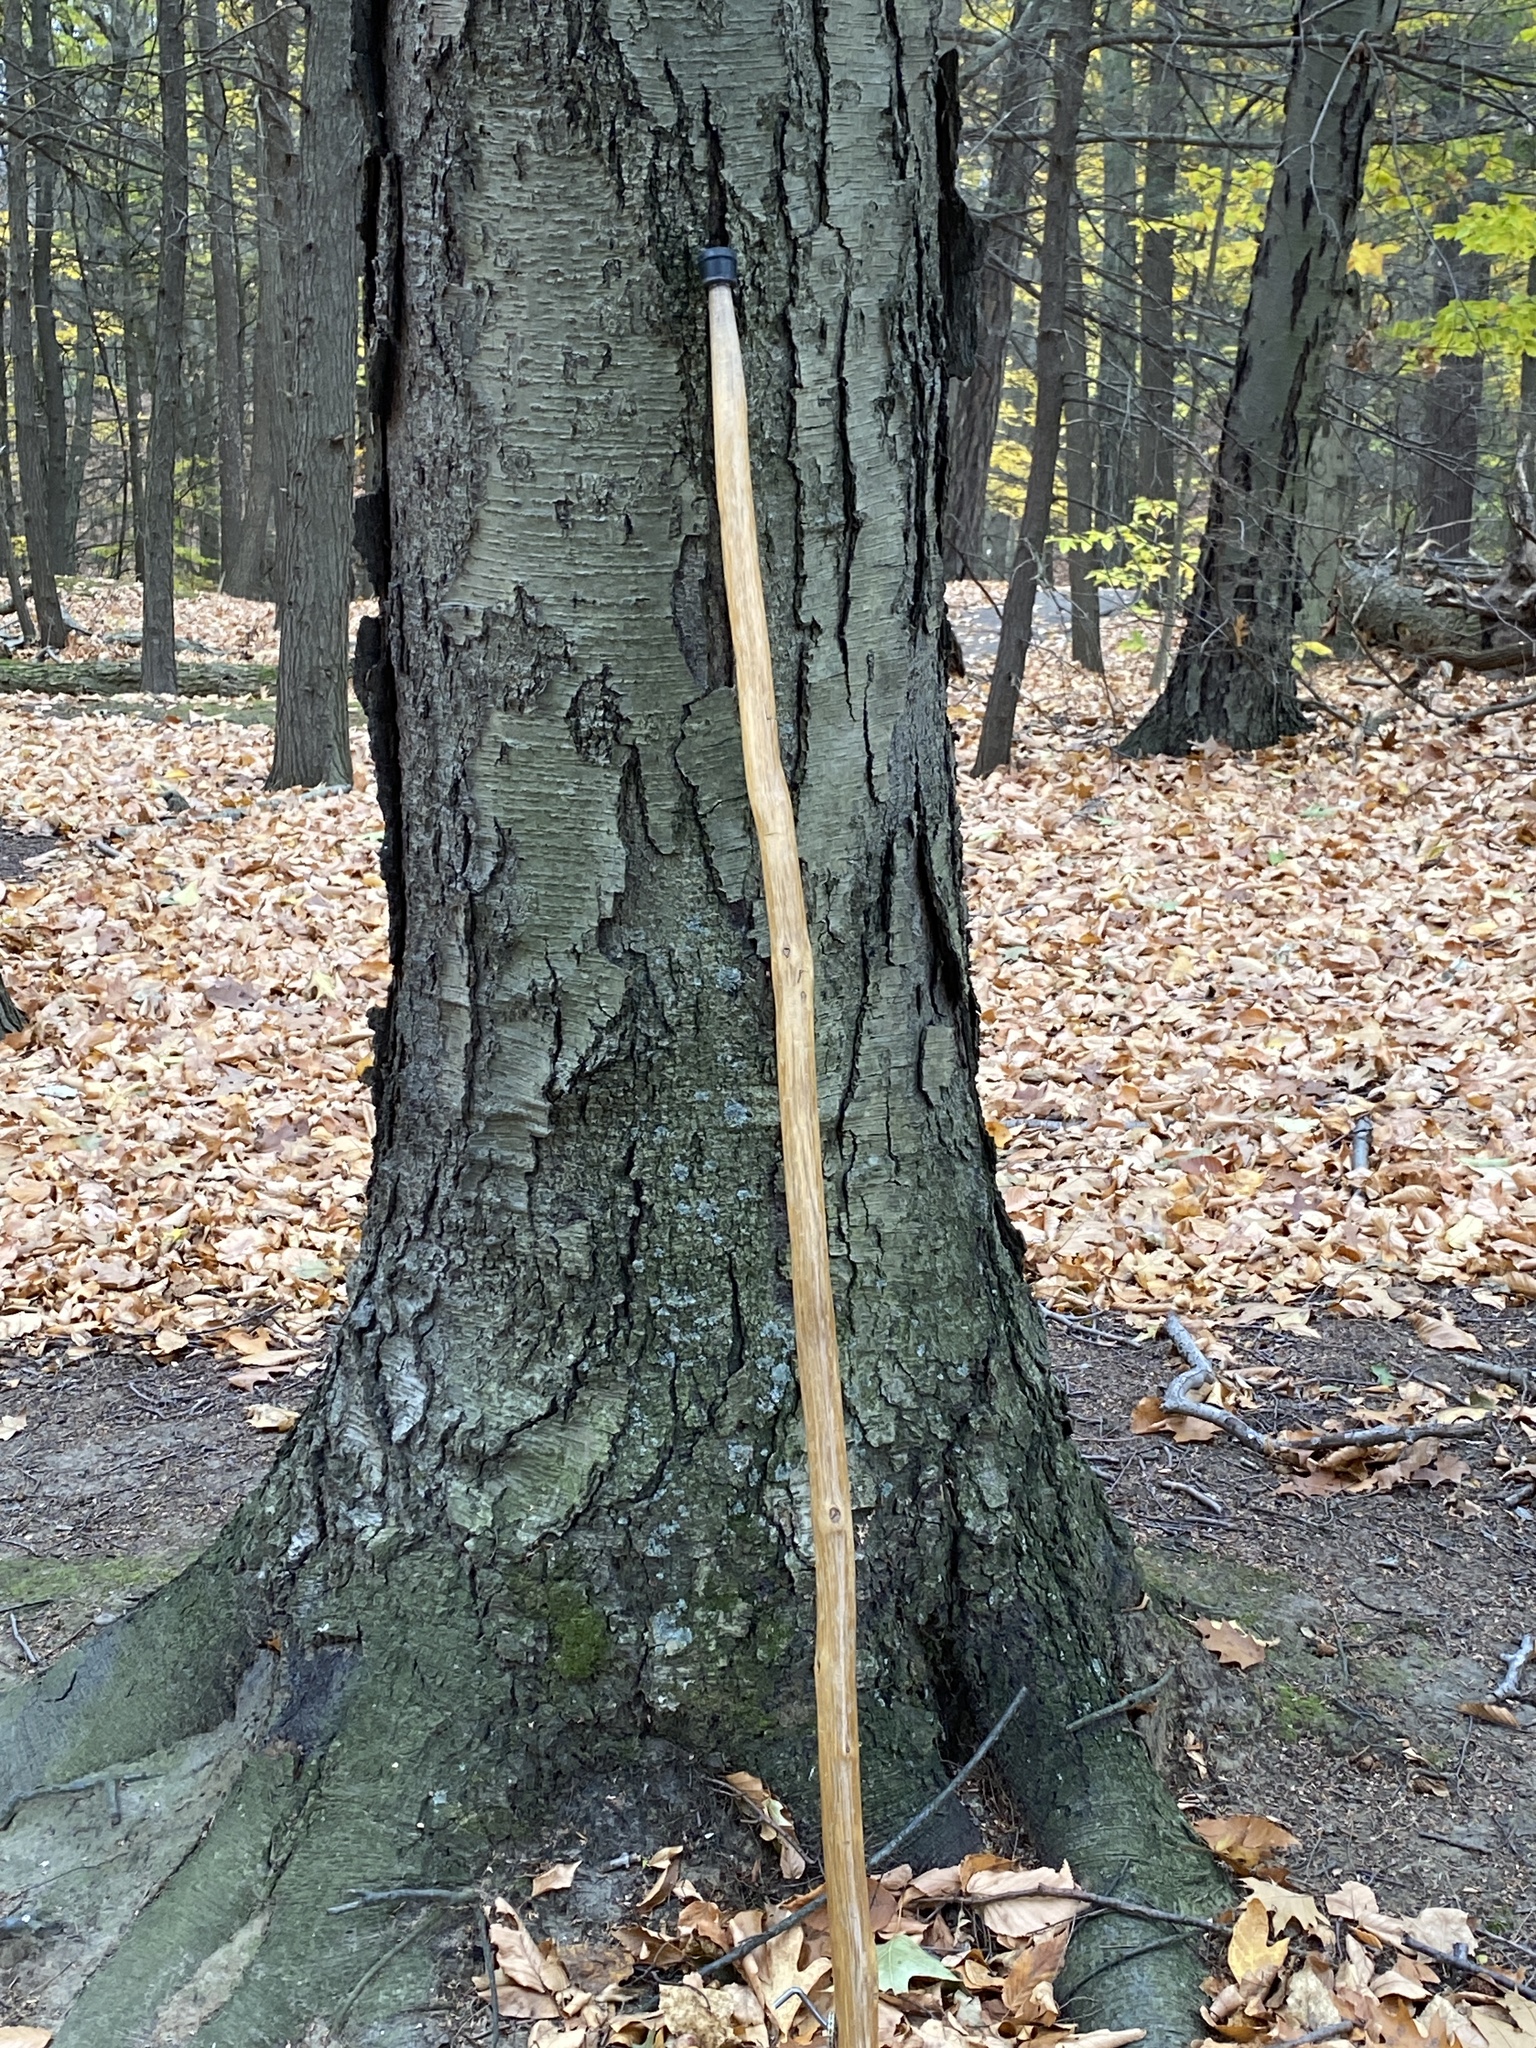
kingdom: Plantae
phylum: Tracheophyta
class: Magnoliopsida
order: Fagales
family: Betulaceae
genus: Betula
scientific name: Betula lenta
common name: Black birch
